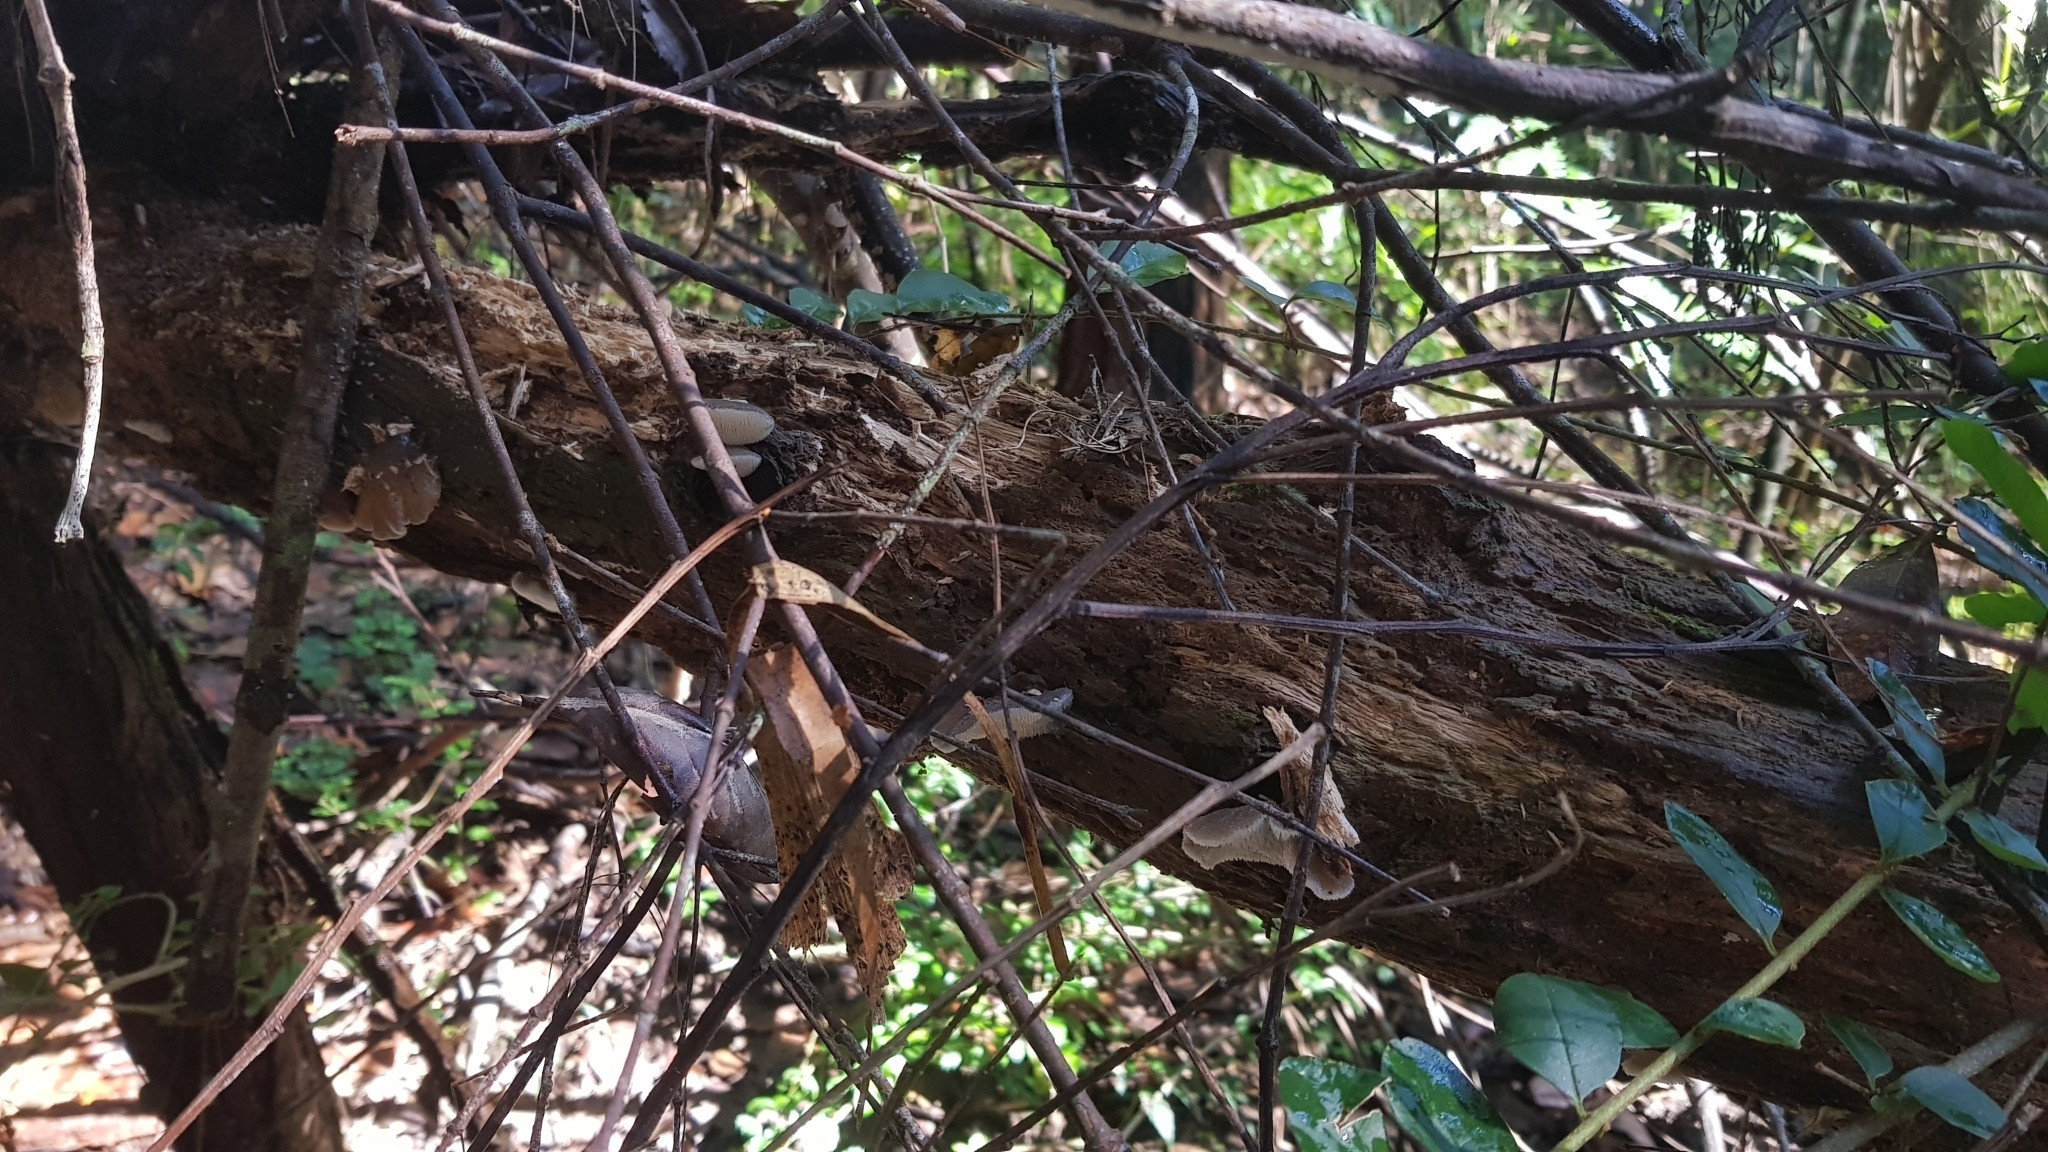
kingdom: Fungi
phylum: Basidiomycota
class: Agaricomycetes
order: Auriculariales
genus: Pseudohydnum
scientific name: Pseudohydnum gelatinosum
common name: Jelly tongue
